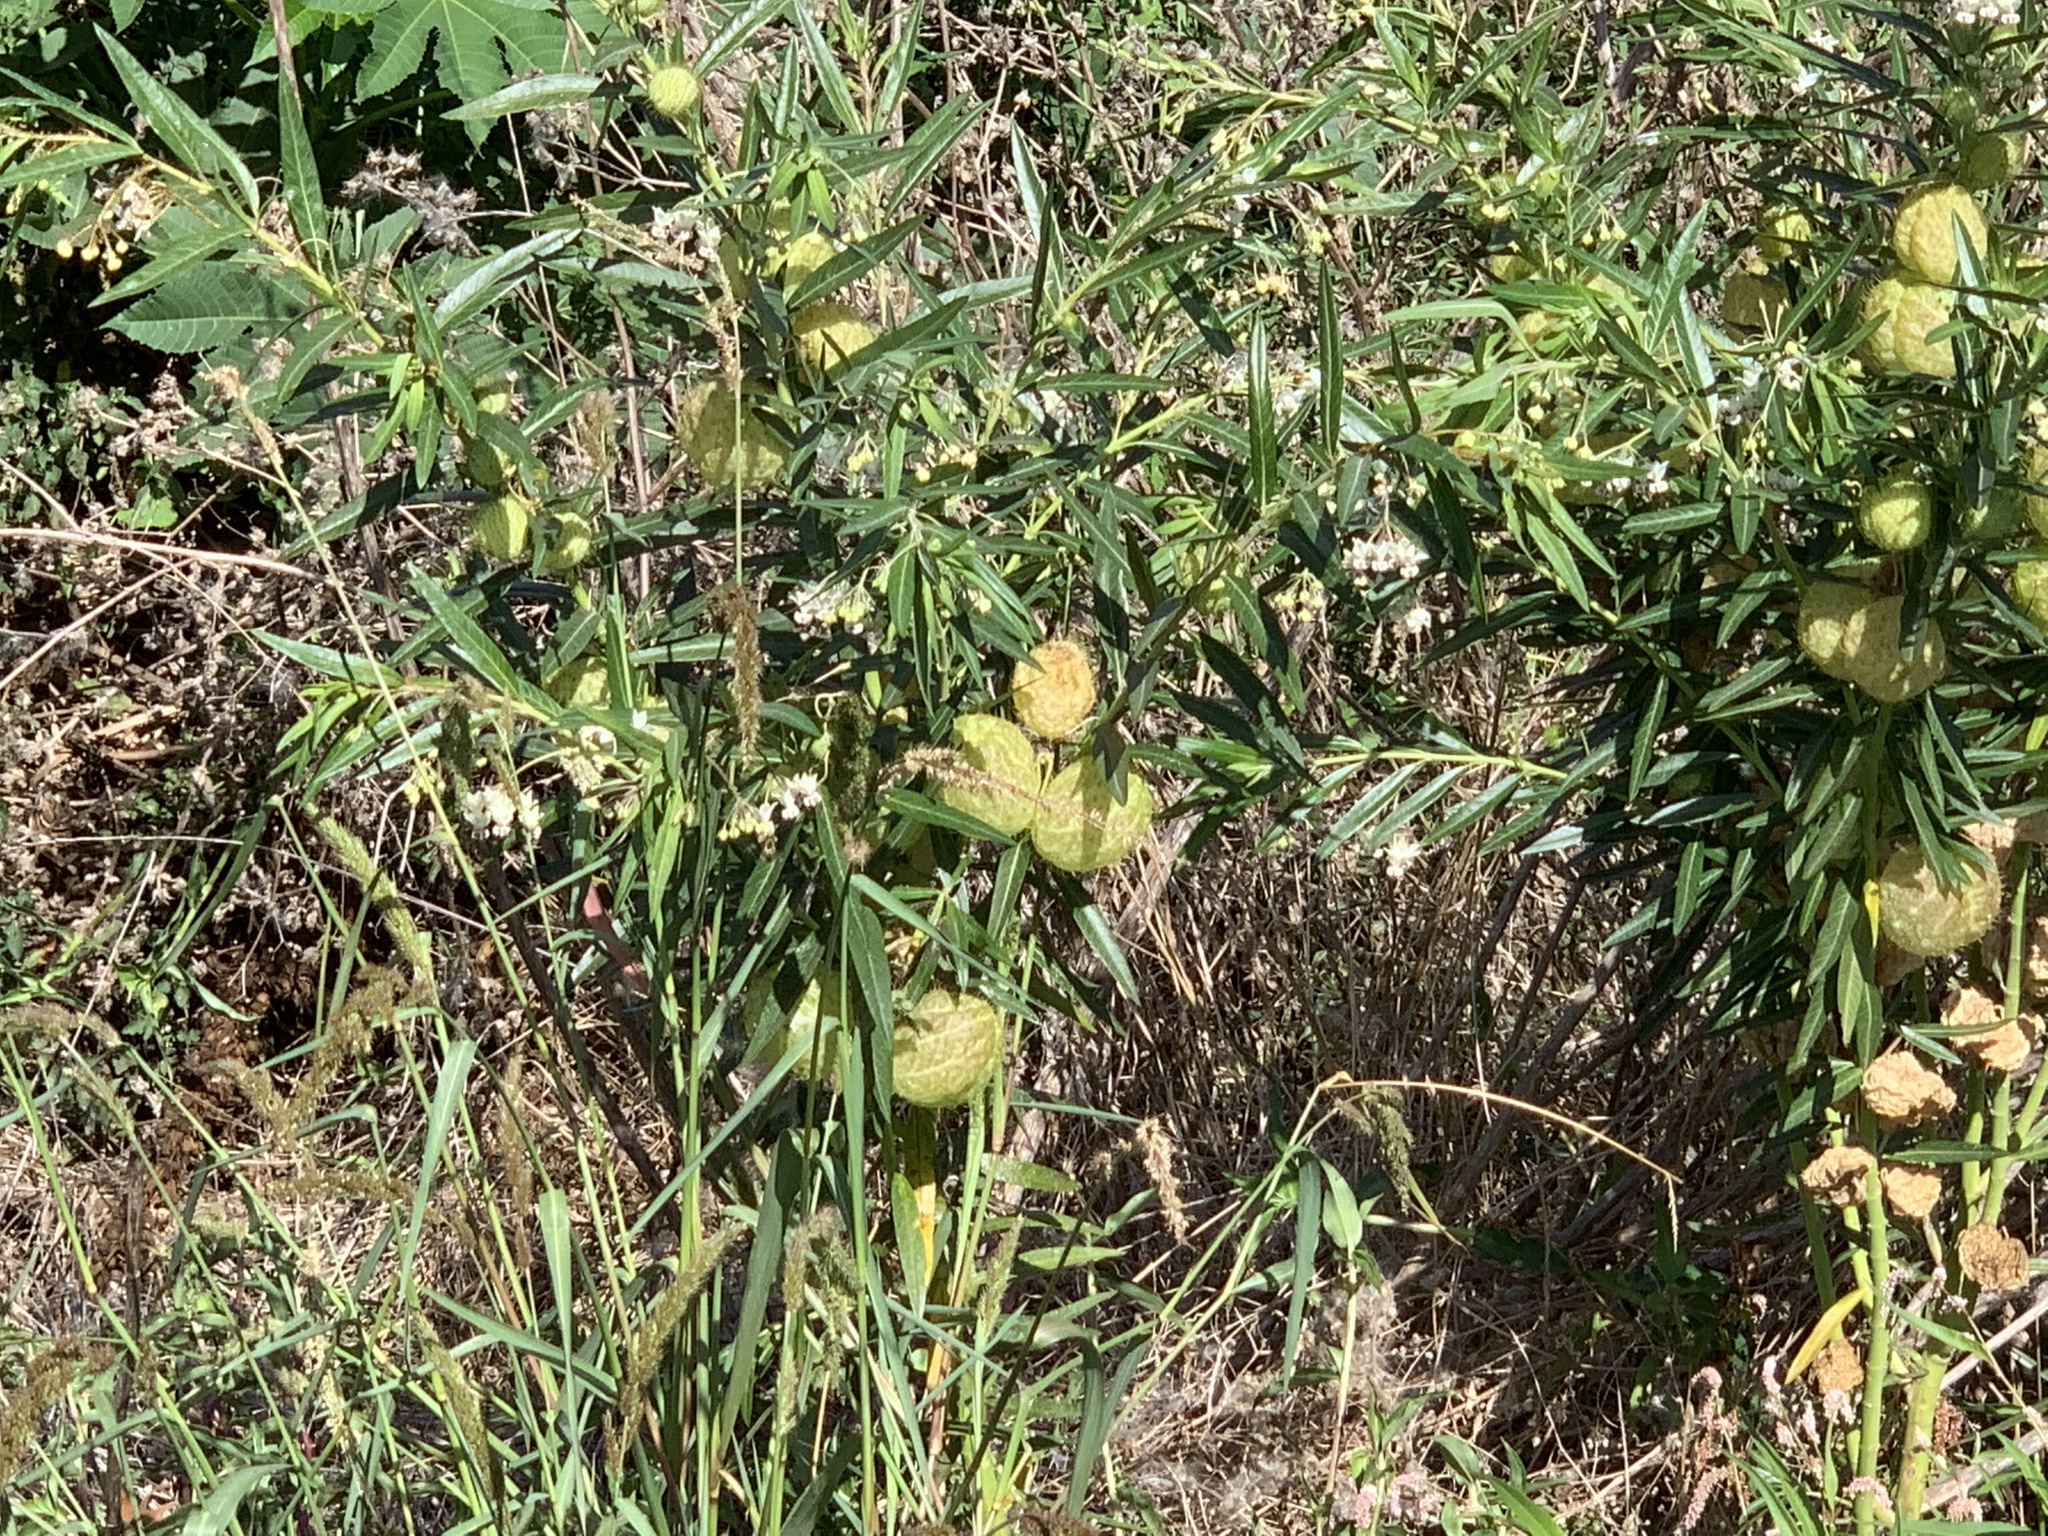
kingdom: Plantae
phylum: Tracheophyta
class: Magnoliopsida
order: Gentianales
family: Apocynaceae
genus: Gomphocarpus
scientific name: Gomphocarpus physocarpus
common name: Balloon cotton bush
